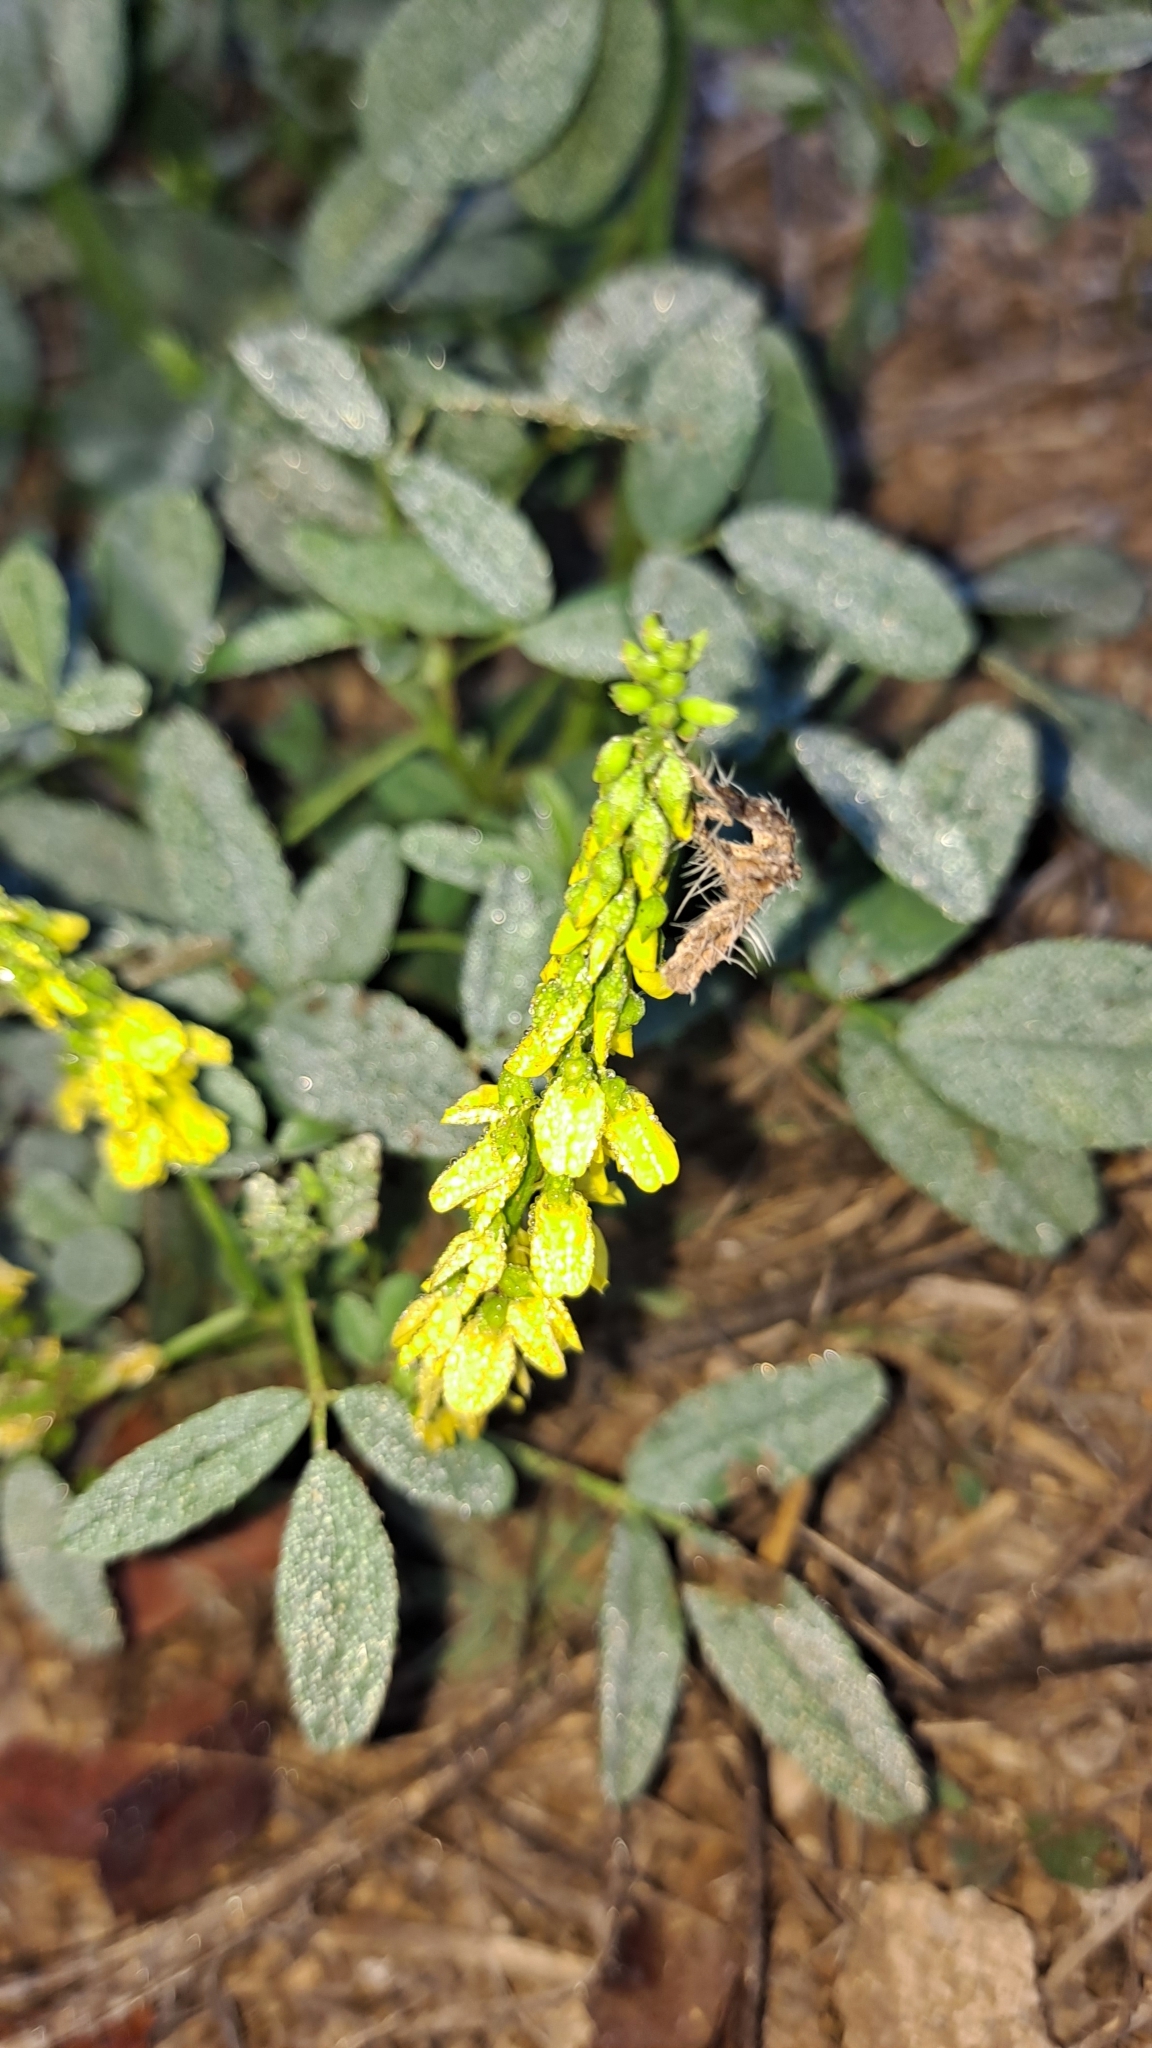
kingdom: Plantae
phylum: Tracheophyta
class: Magnoliopsida
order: Fabales
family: Fabaceae
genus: Melilotus
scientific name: Melilotus indicus
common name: Small melilot
